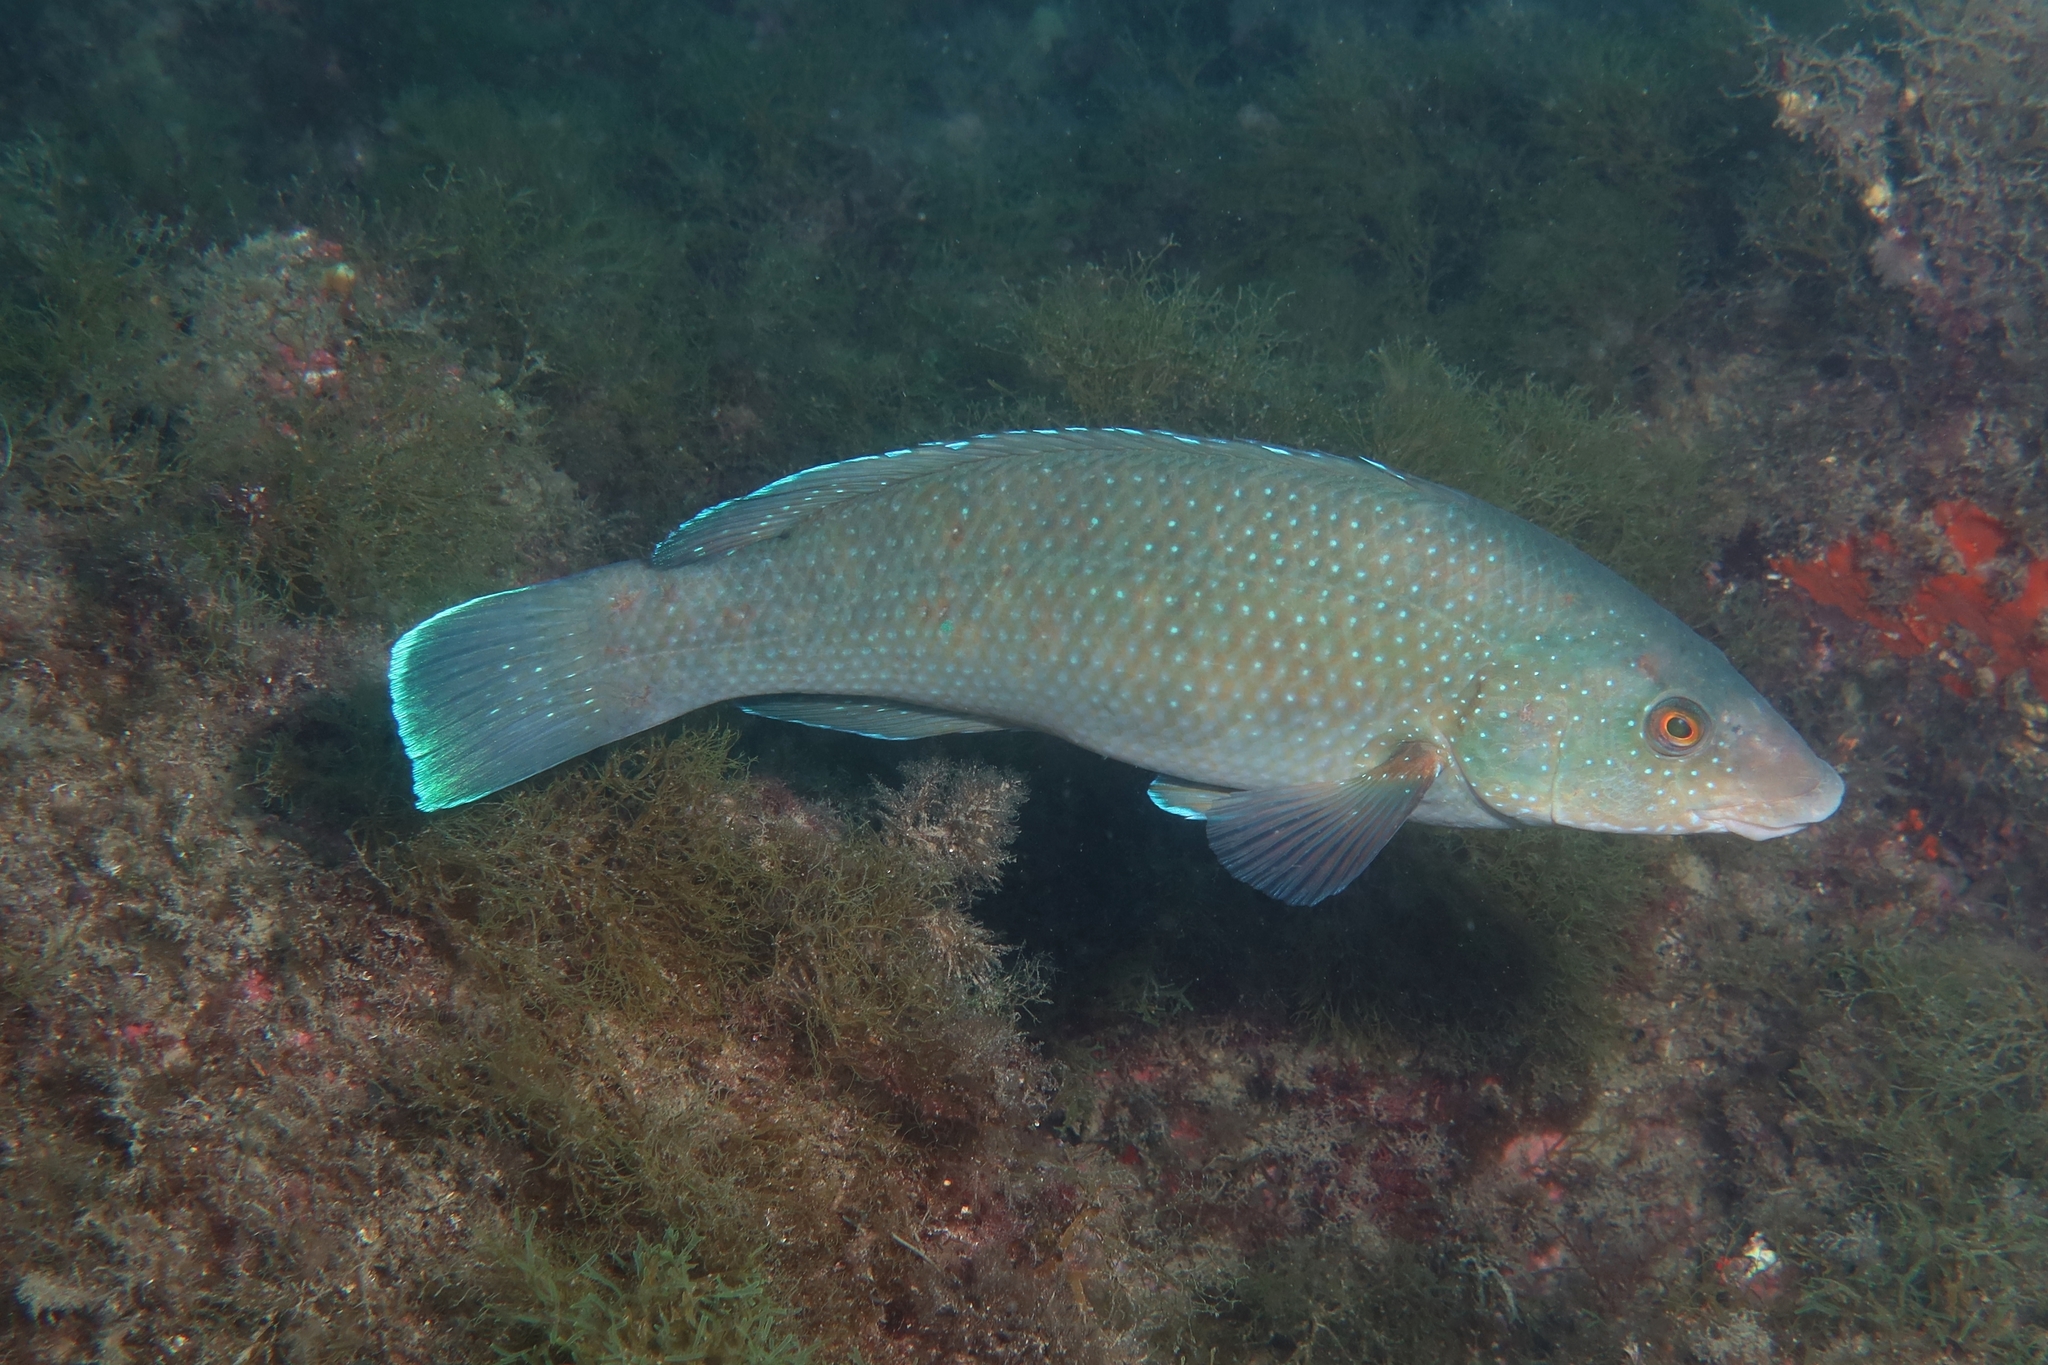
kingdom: Animalia
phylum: Chordata
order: Perciformes
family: Labridae
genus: Labrus
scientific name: Labrus merula
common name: Brown wrasse
